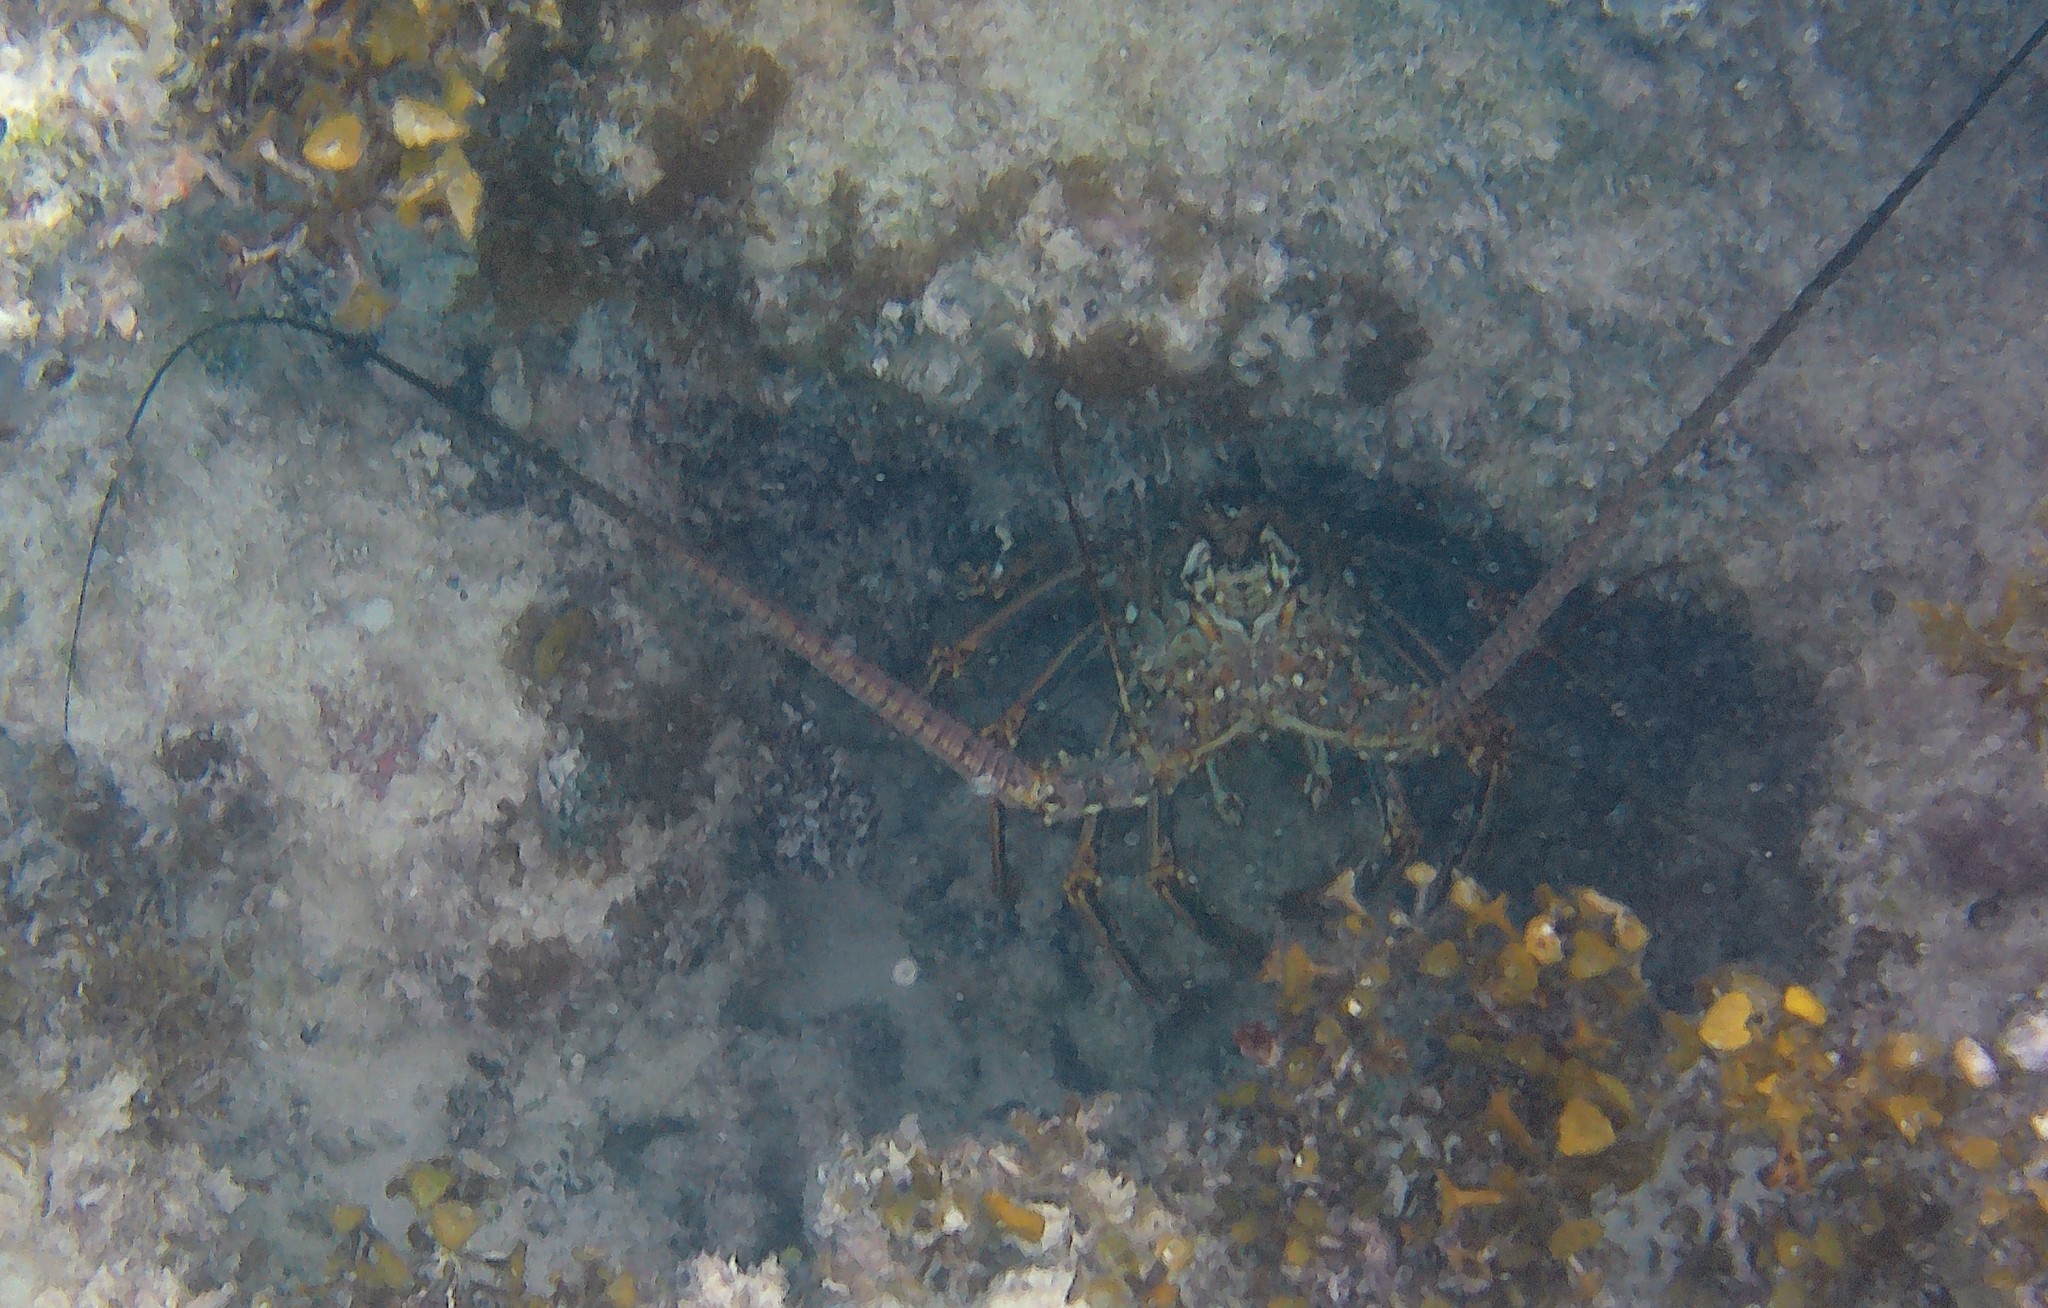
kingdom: Animalia
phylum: Arthropoda
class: Malacostraca
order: Decapoda
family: Palinuridae
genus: Panulirus
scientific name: Panulirus argus
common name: Caribbean spiny lobster
